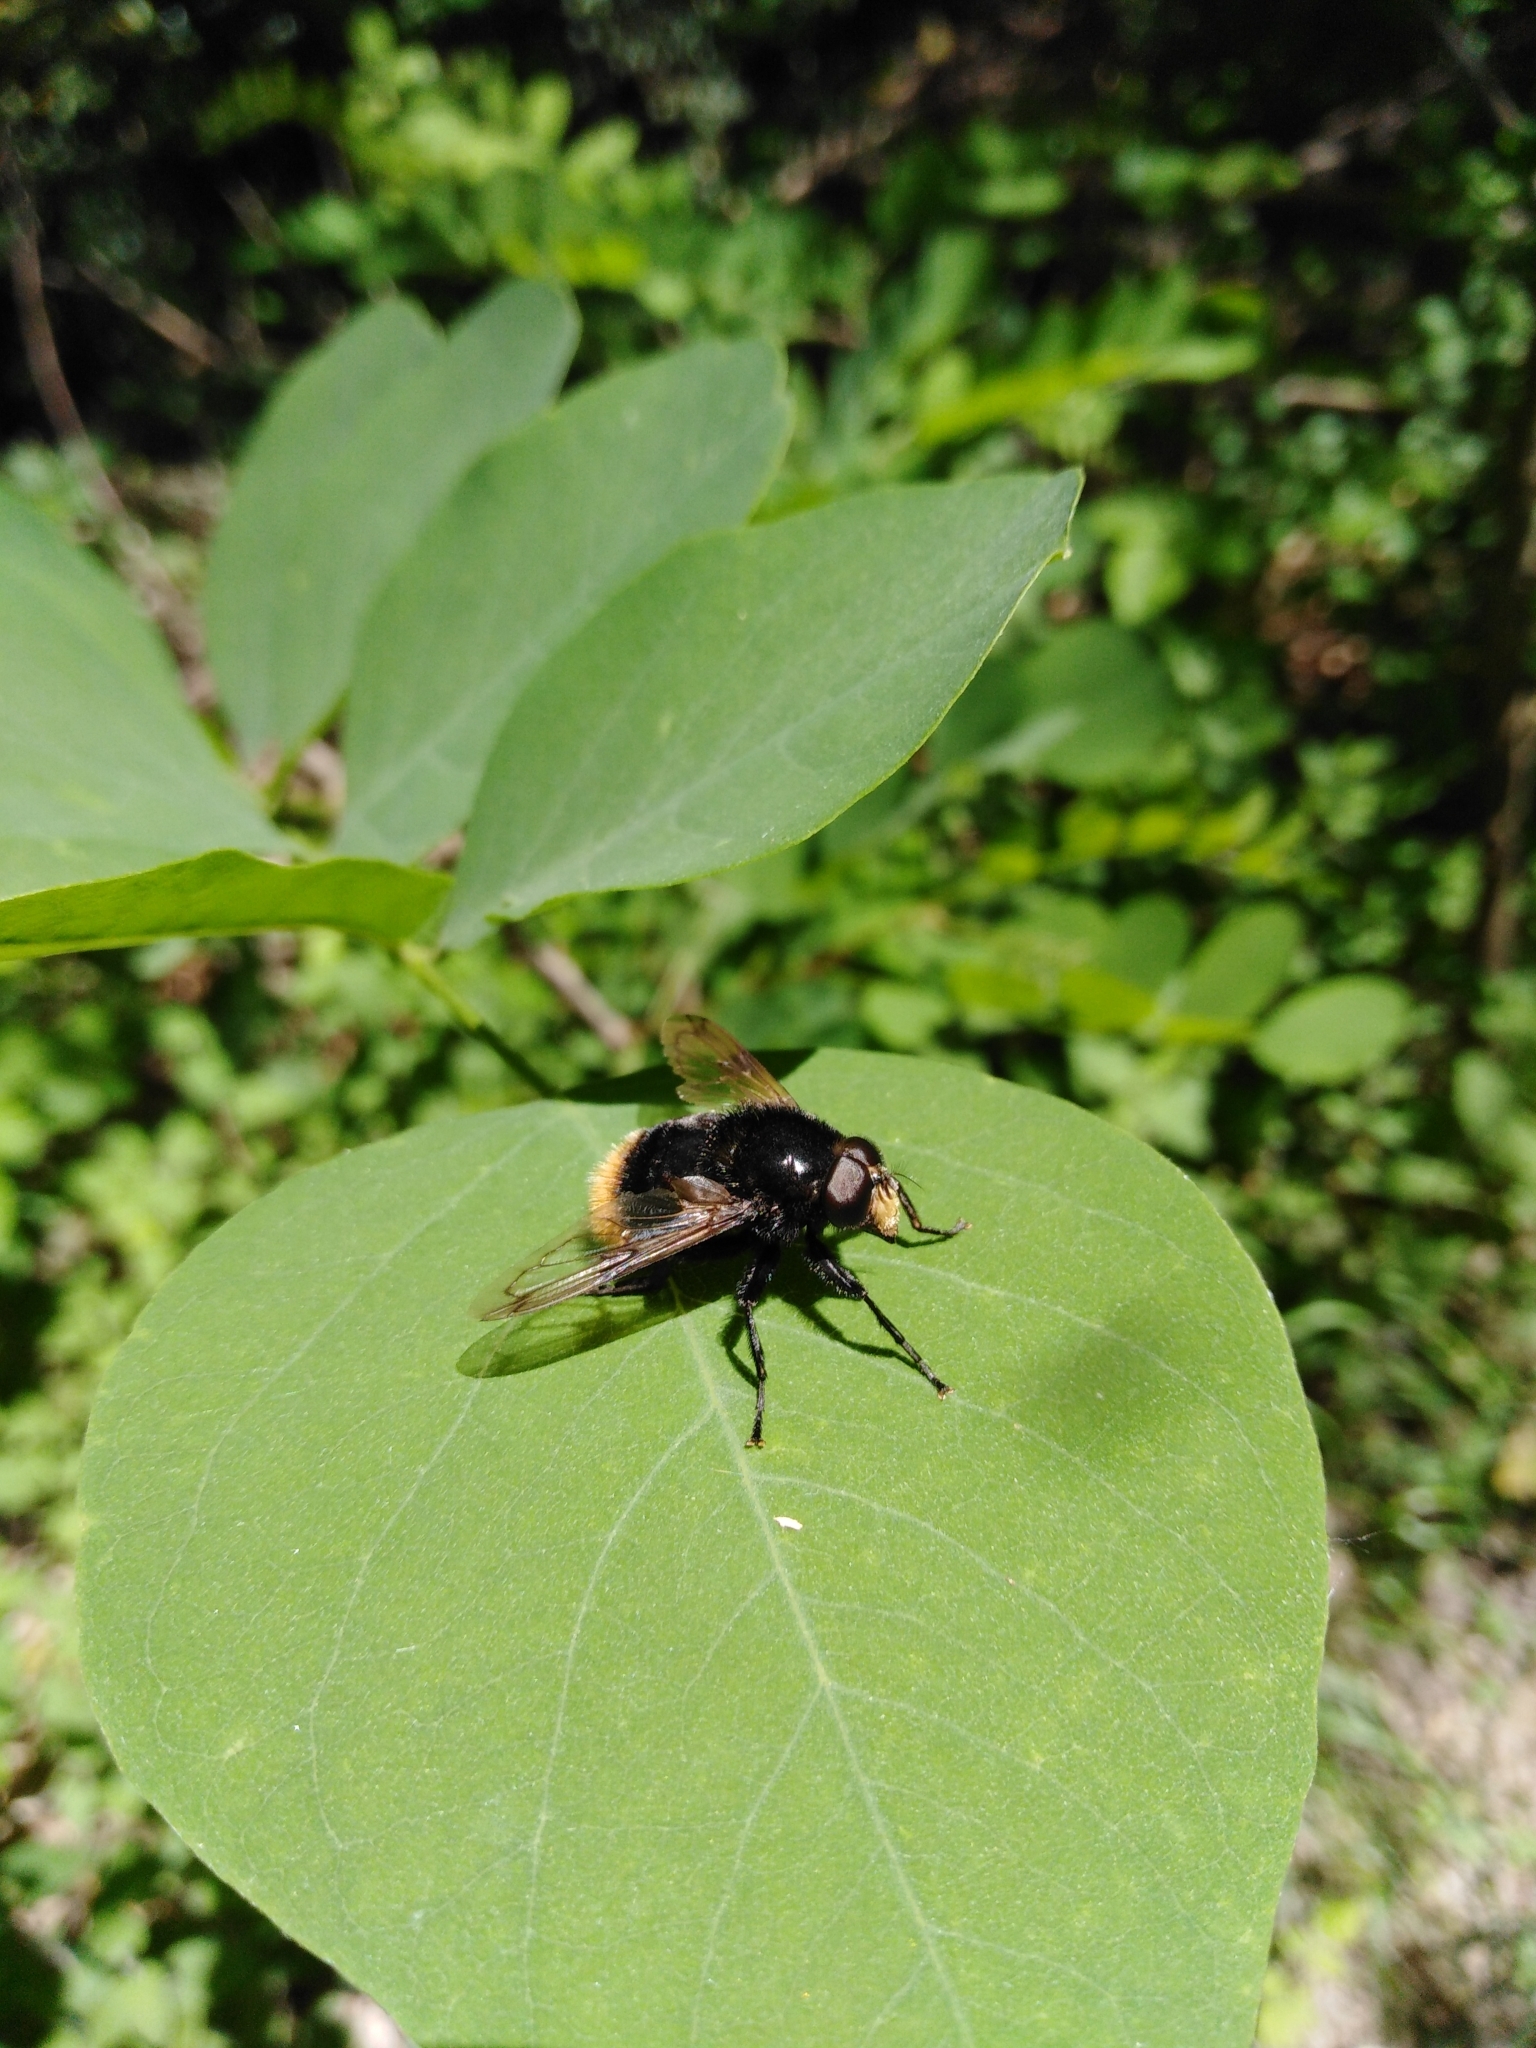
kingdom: Animalia
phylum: Arthropoda
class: Insecta
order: Diptera
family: Syrphidae
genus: Volucella
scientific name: Volucella bombylans
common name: Bumble bee hover fly
